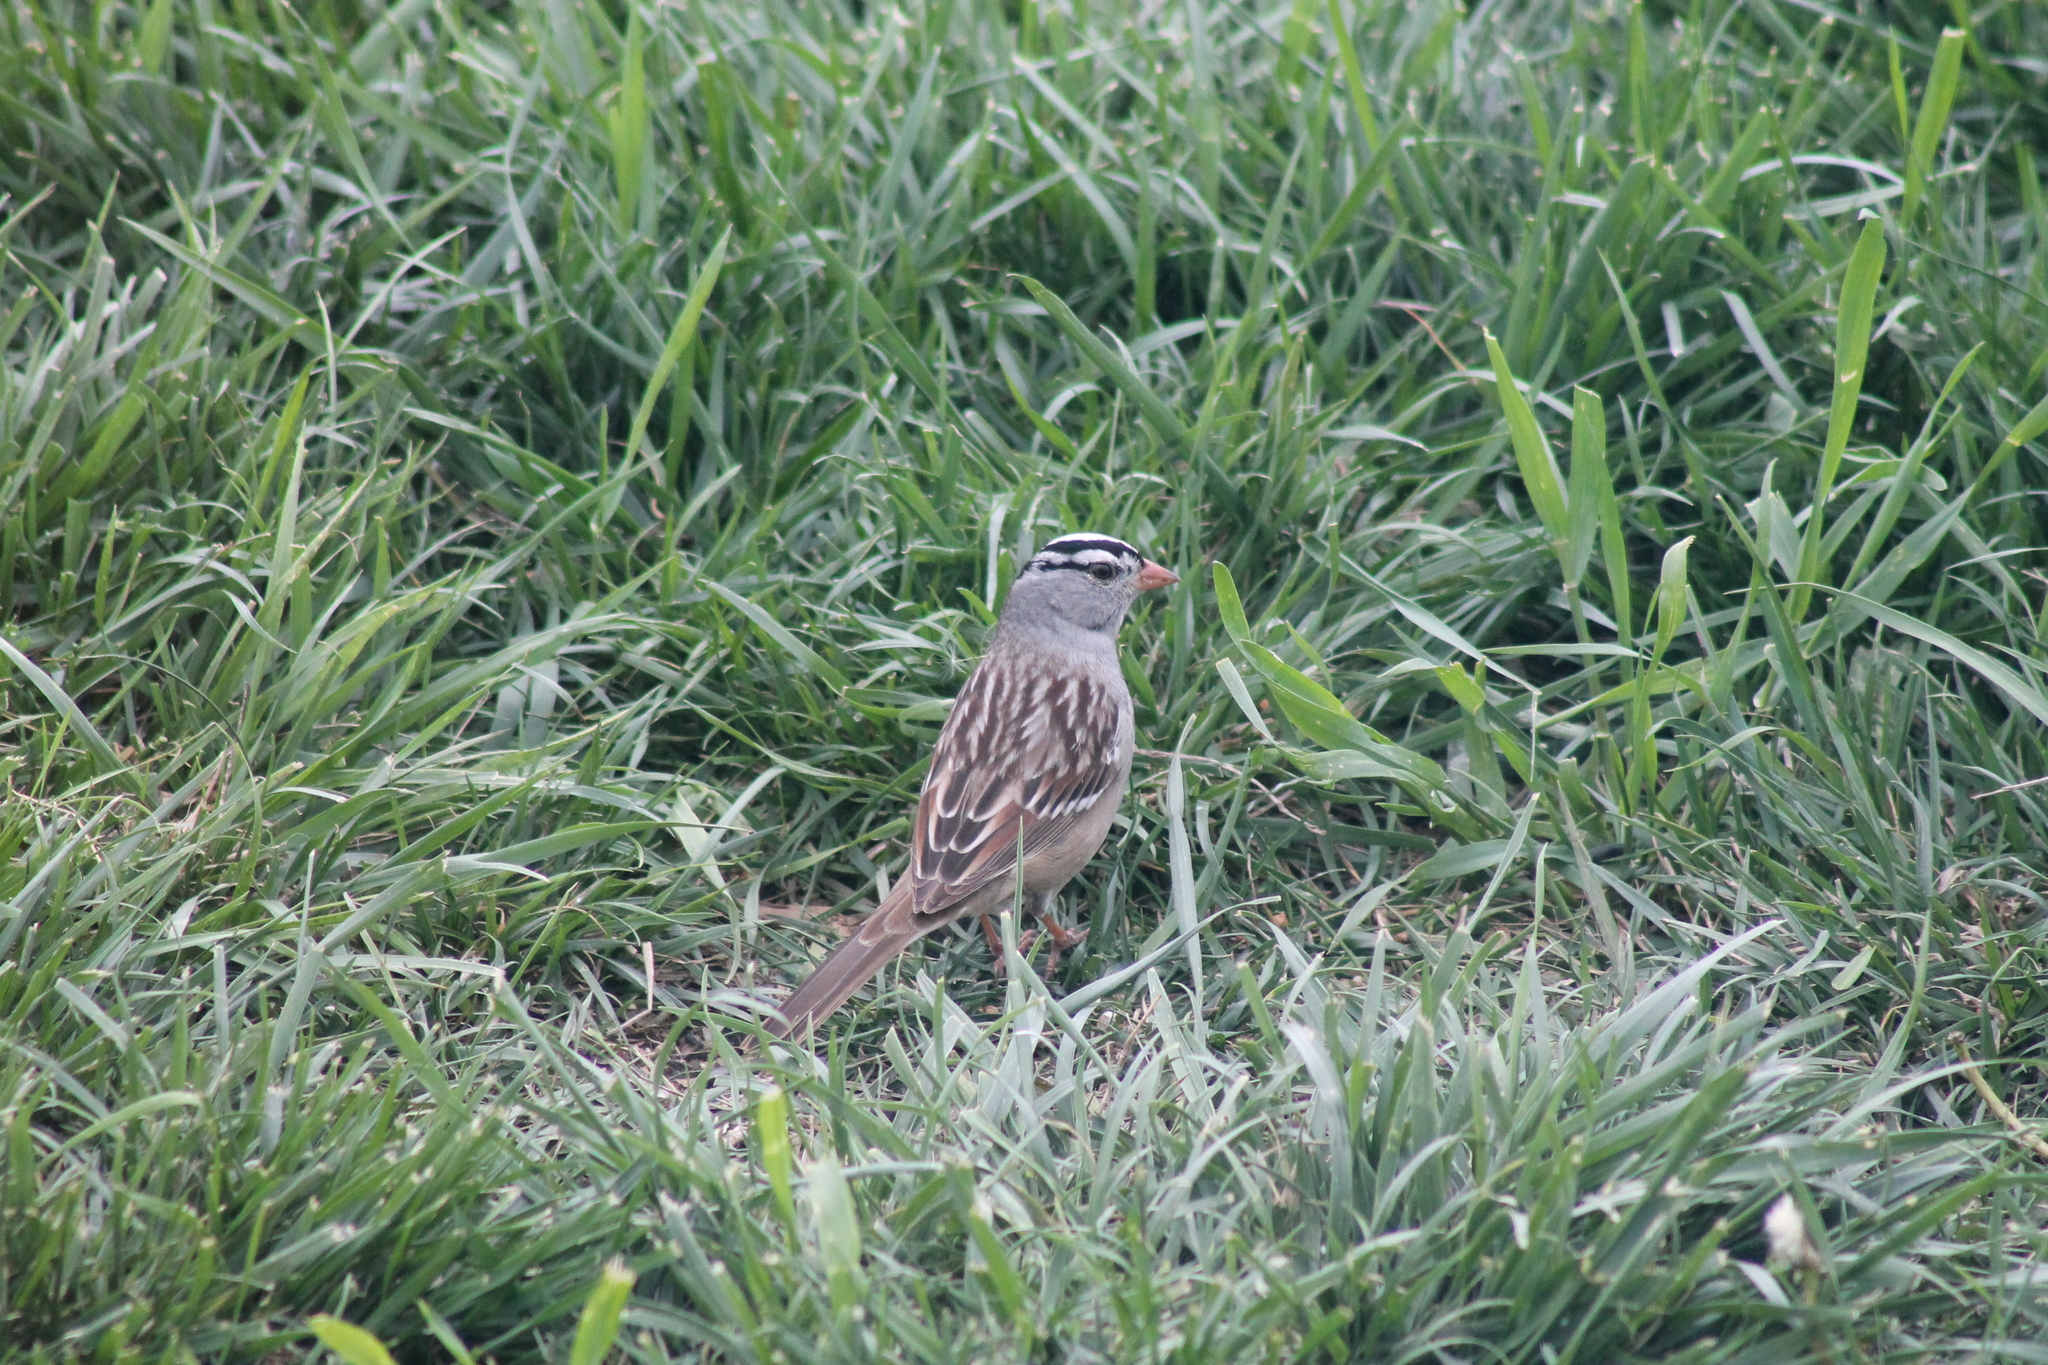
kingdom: Animalia
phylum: Chordata
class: Aves
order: Passeriformes
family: Passerellidae
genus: Zonotrichia
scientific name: Zonotrichia leucophrys
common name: White-crowned sparrow
